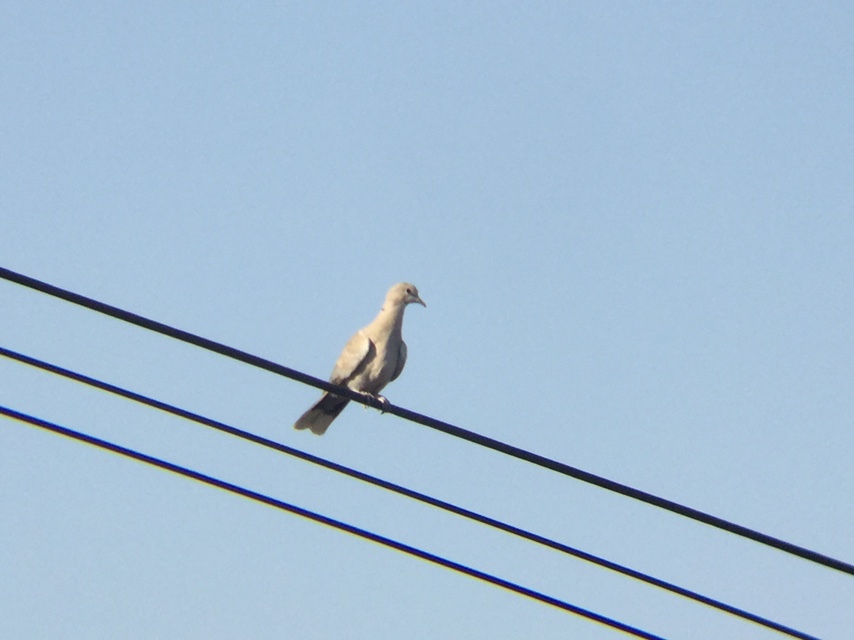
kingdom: Animalia
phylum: Chordata
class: Aves
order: Columbiformes
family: Columbidae
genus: Streptopelia
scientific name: Streptopelia decaocto
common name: Eurasian collared dove
